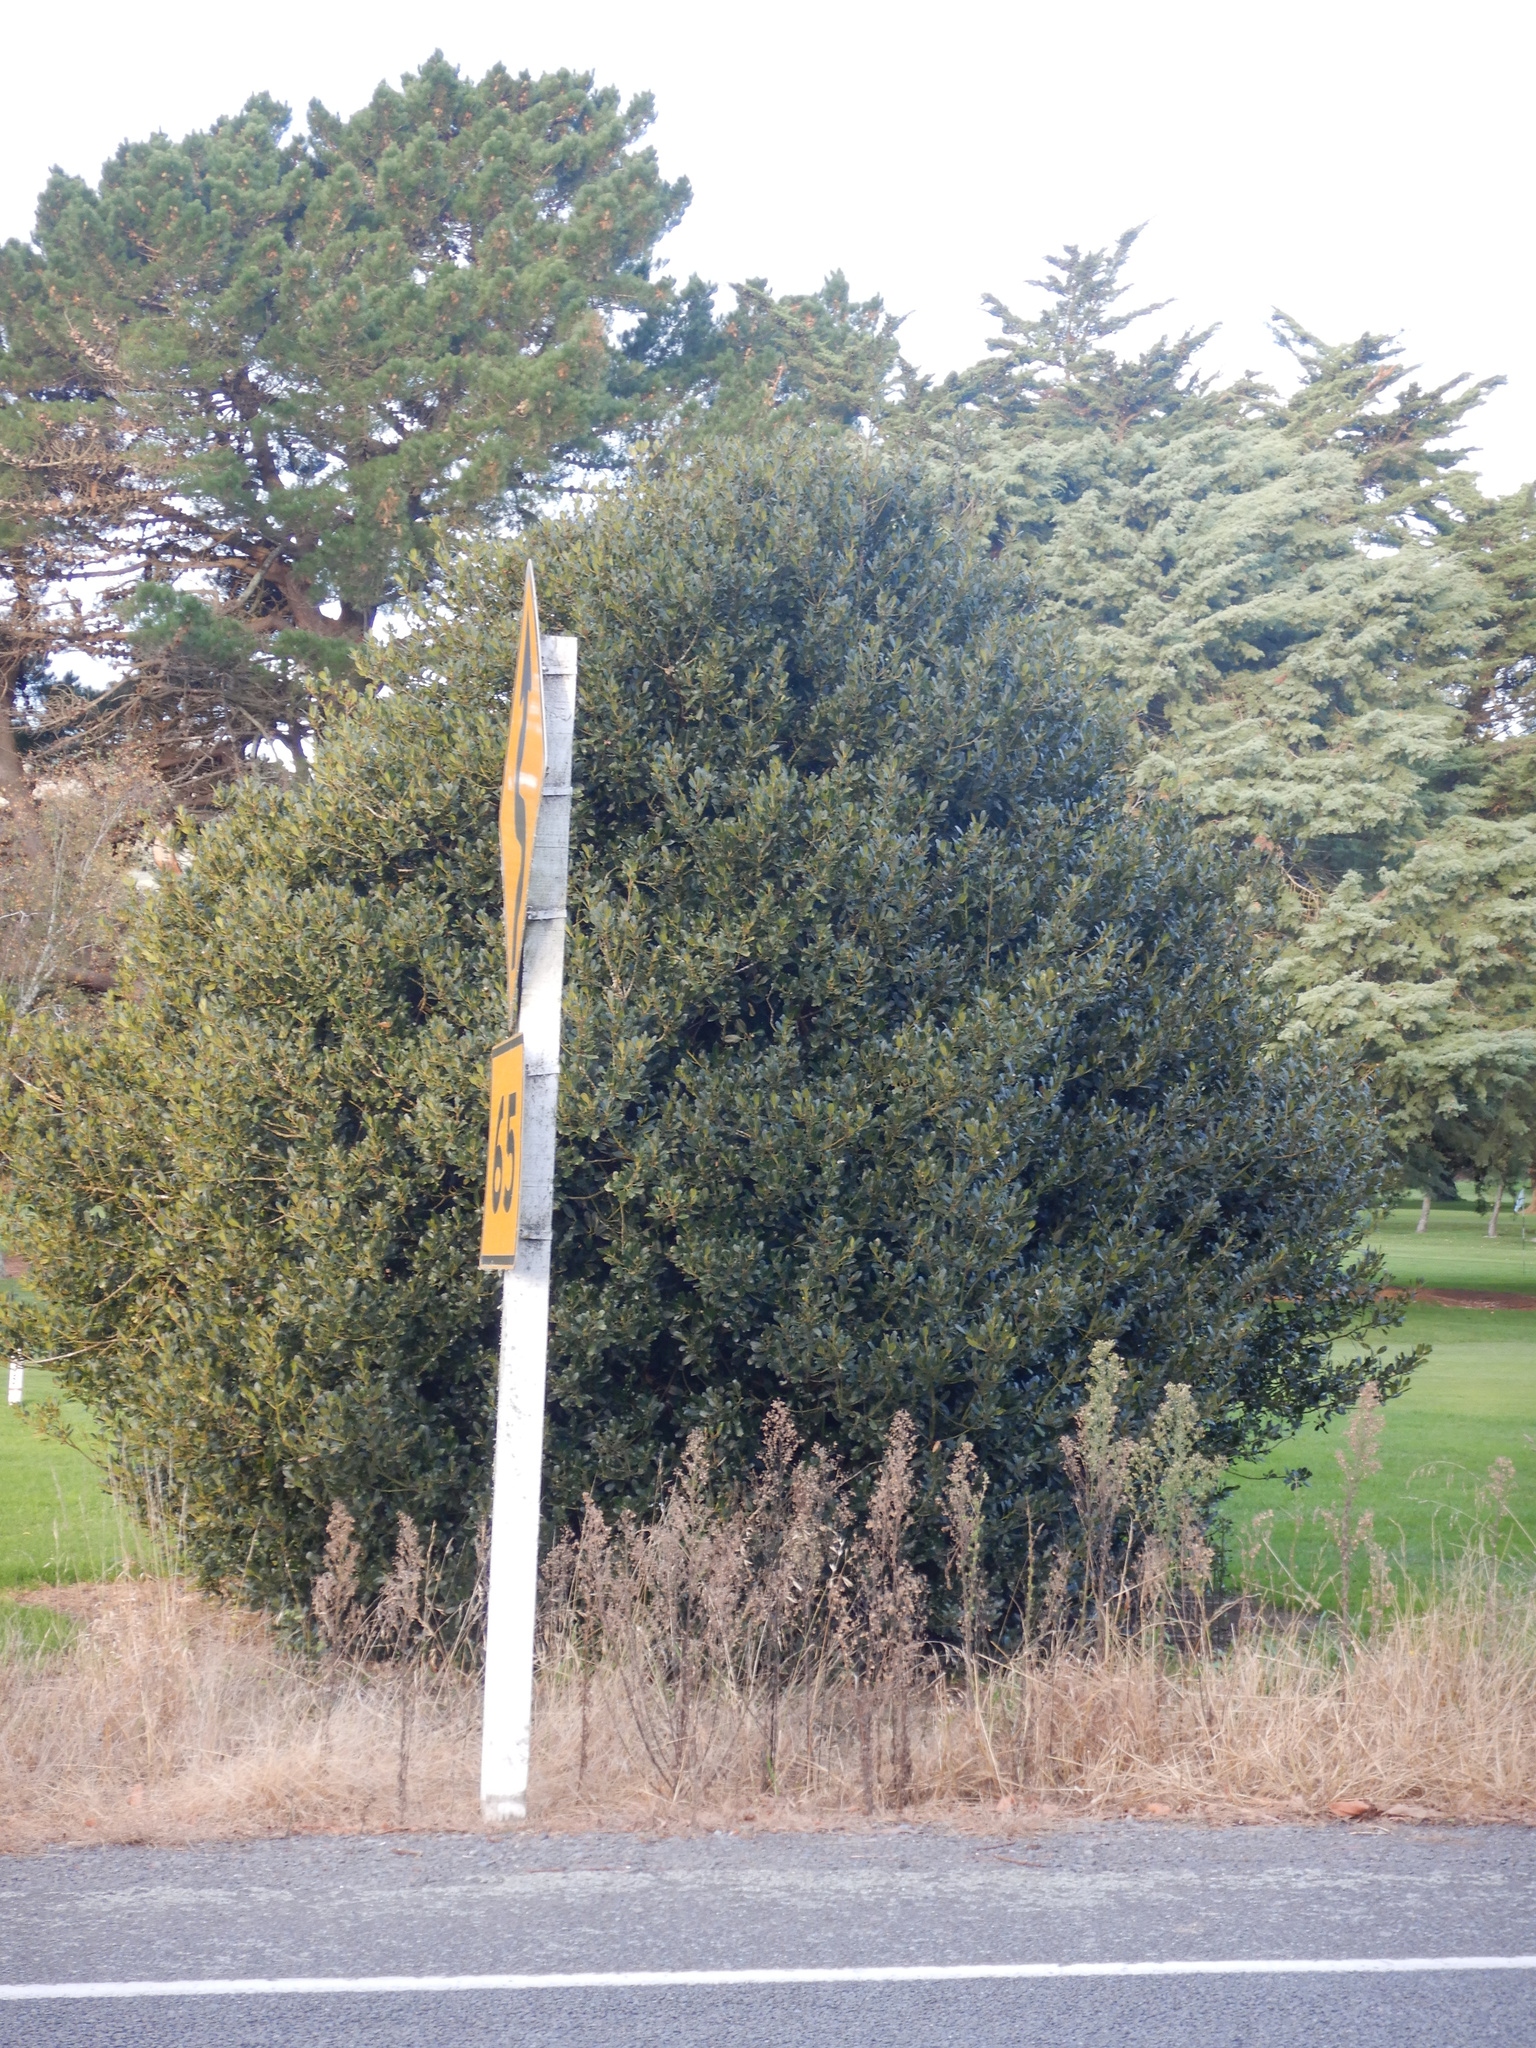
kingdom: Plantae
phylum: Tracheophyta
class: Magnoliopsida
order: Aquifoliales
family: Aquifoliaceae
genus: Ilex
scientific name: Ilex aquifolium
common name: English holly
